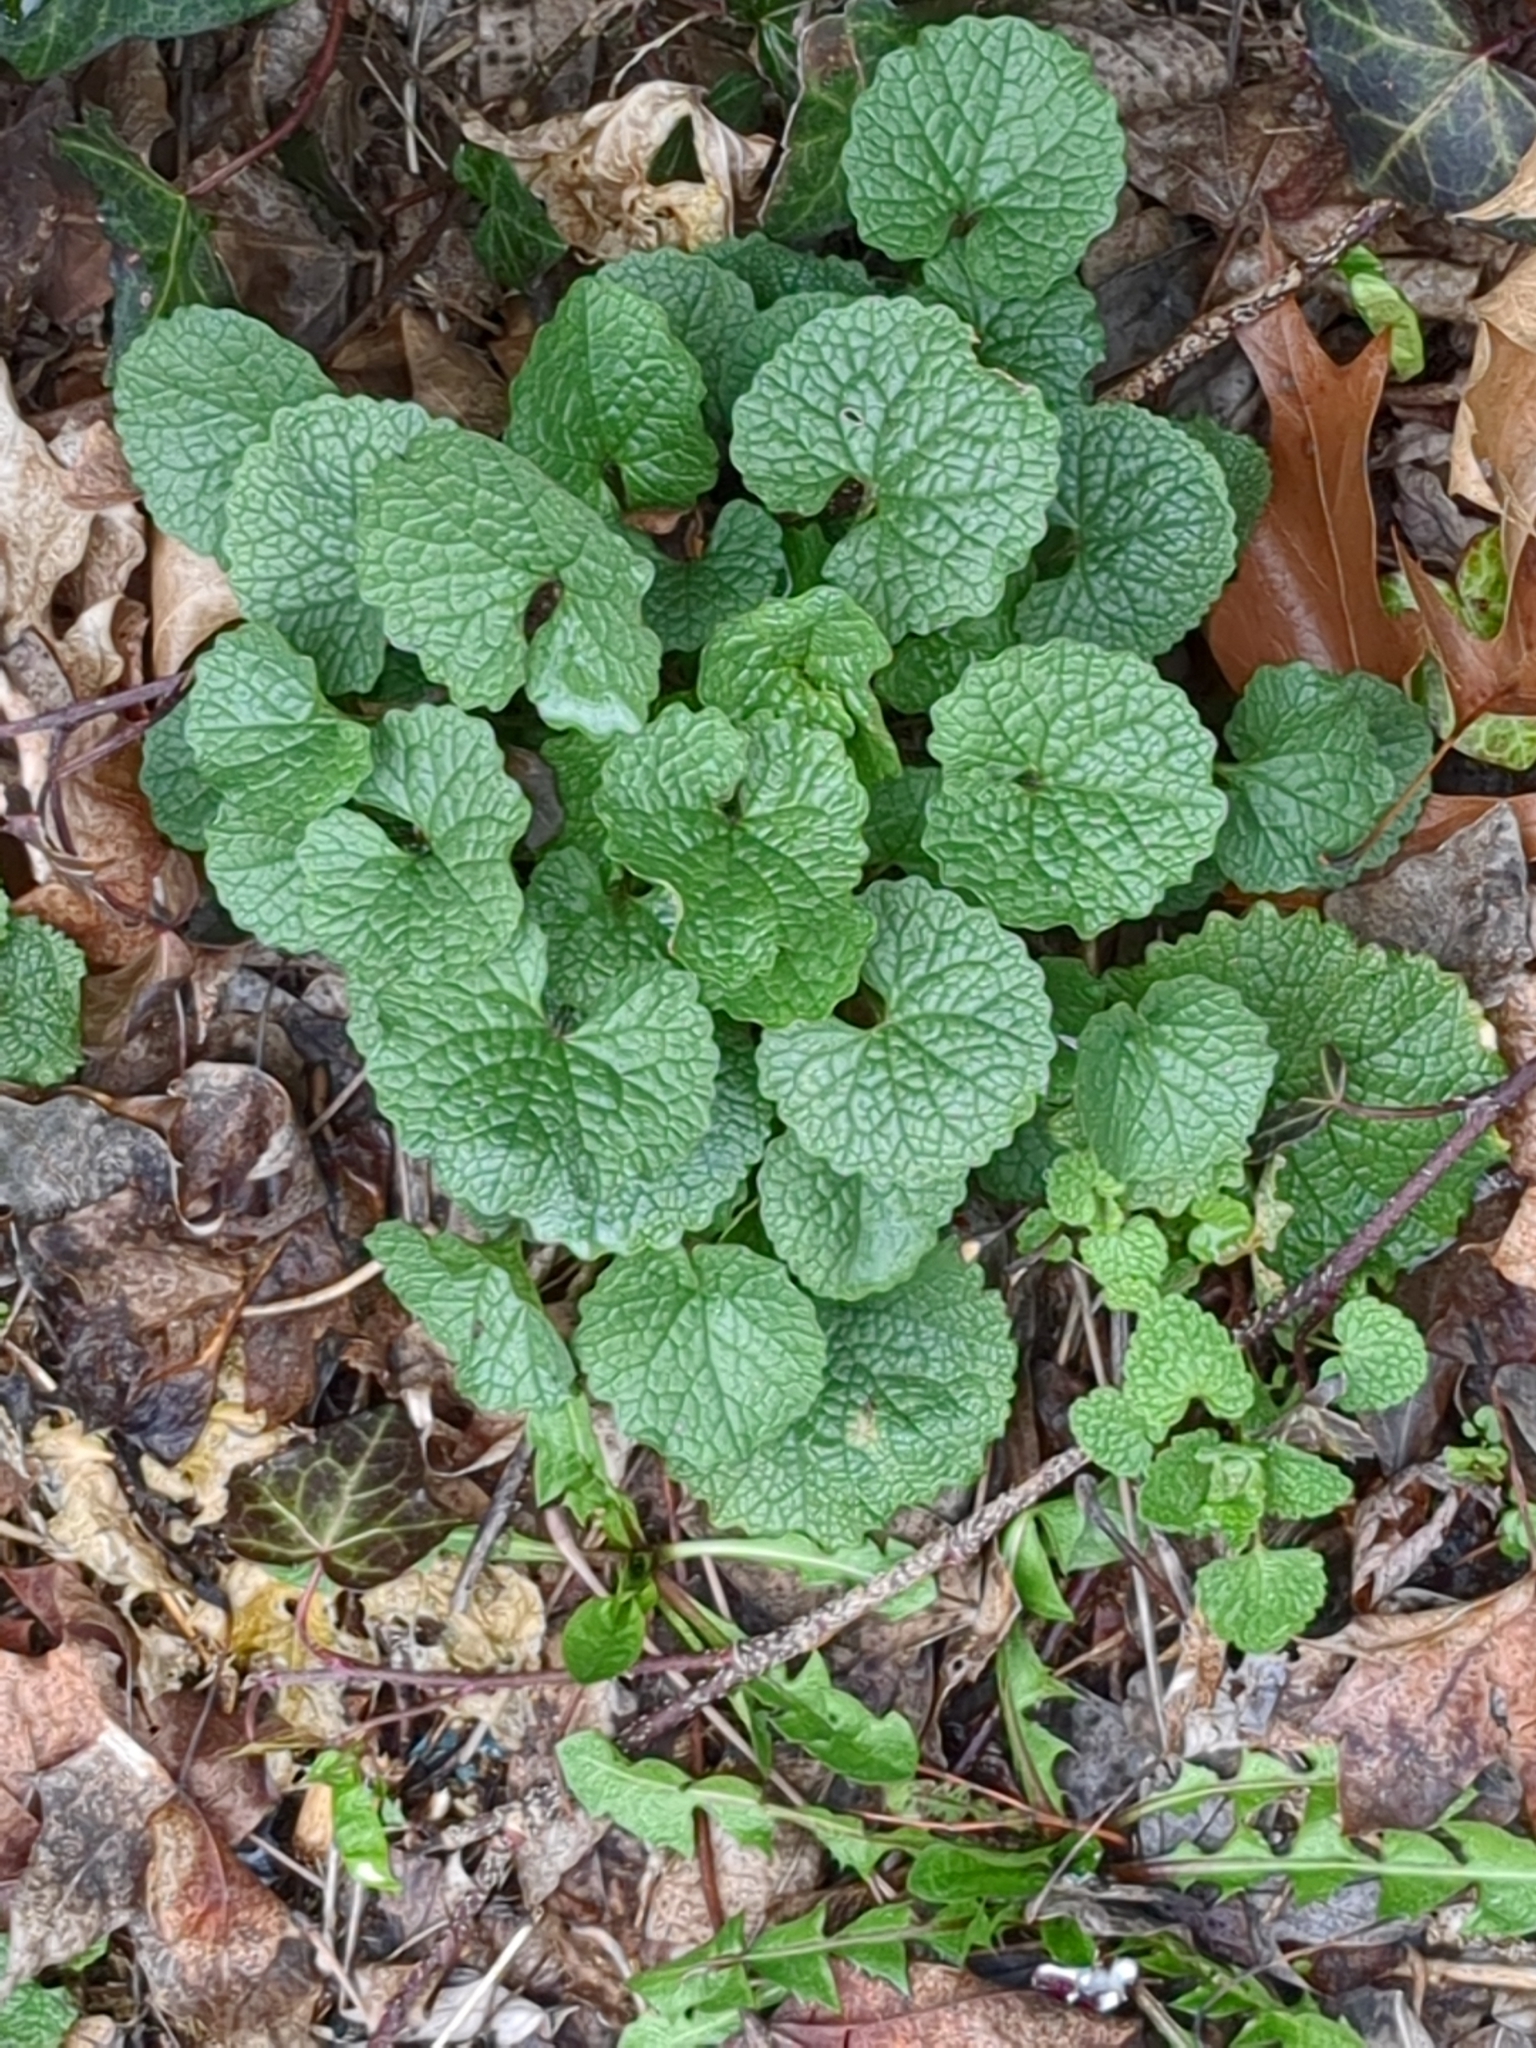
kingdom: Plantae
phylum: Tracheophyta
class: Magnoliopsida
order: Brassicales
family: Brassicaceae
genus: Alliaria
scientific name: Alliaria petiolata
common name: Garlic mustard
